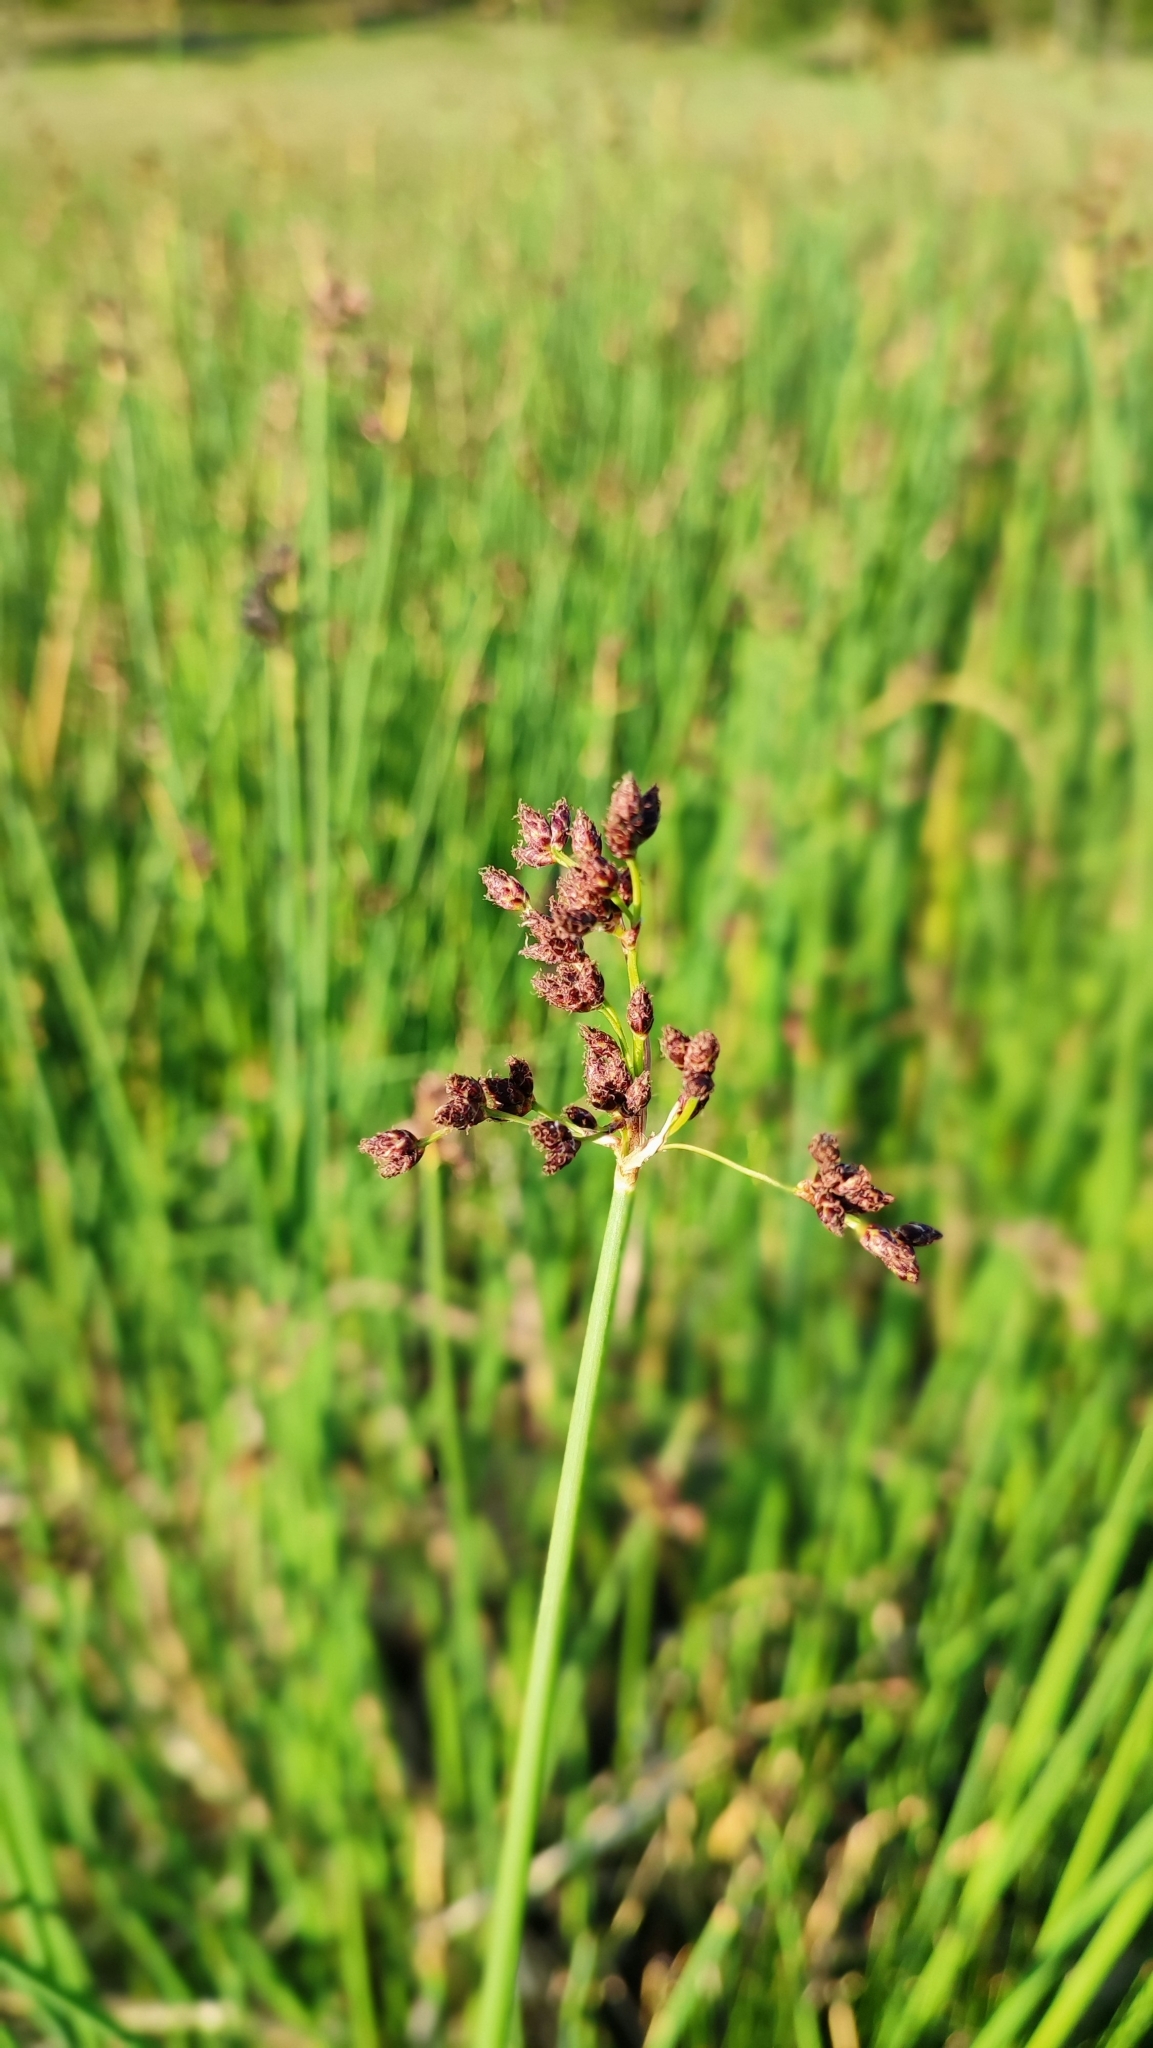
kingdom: Plantae
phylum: Tracheophyta
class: Liliopsida
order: Poales
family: Cyperaceae
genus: Schoenoplectus
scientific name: Schoenoplectus lacustris
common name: Common club-rush
